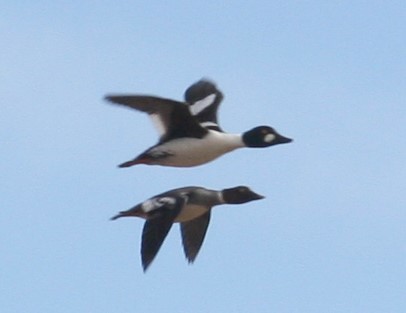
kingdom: Animalia
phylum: Chordata
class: Aves
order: Anseriformes
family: Anatidae
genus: Bucephala
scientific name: Bucephala clangula
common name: Common goldeneye
